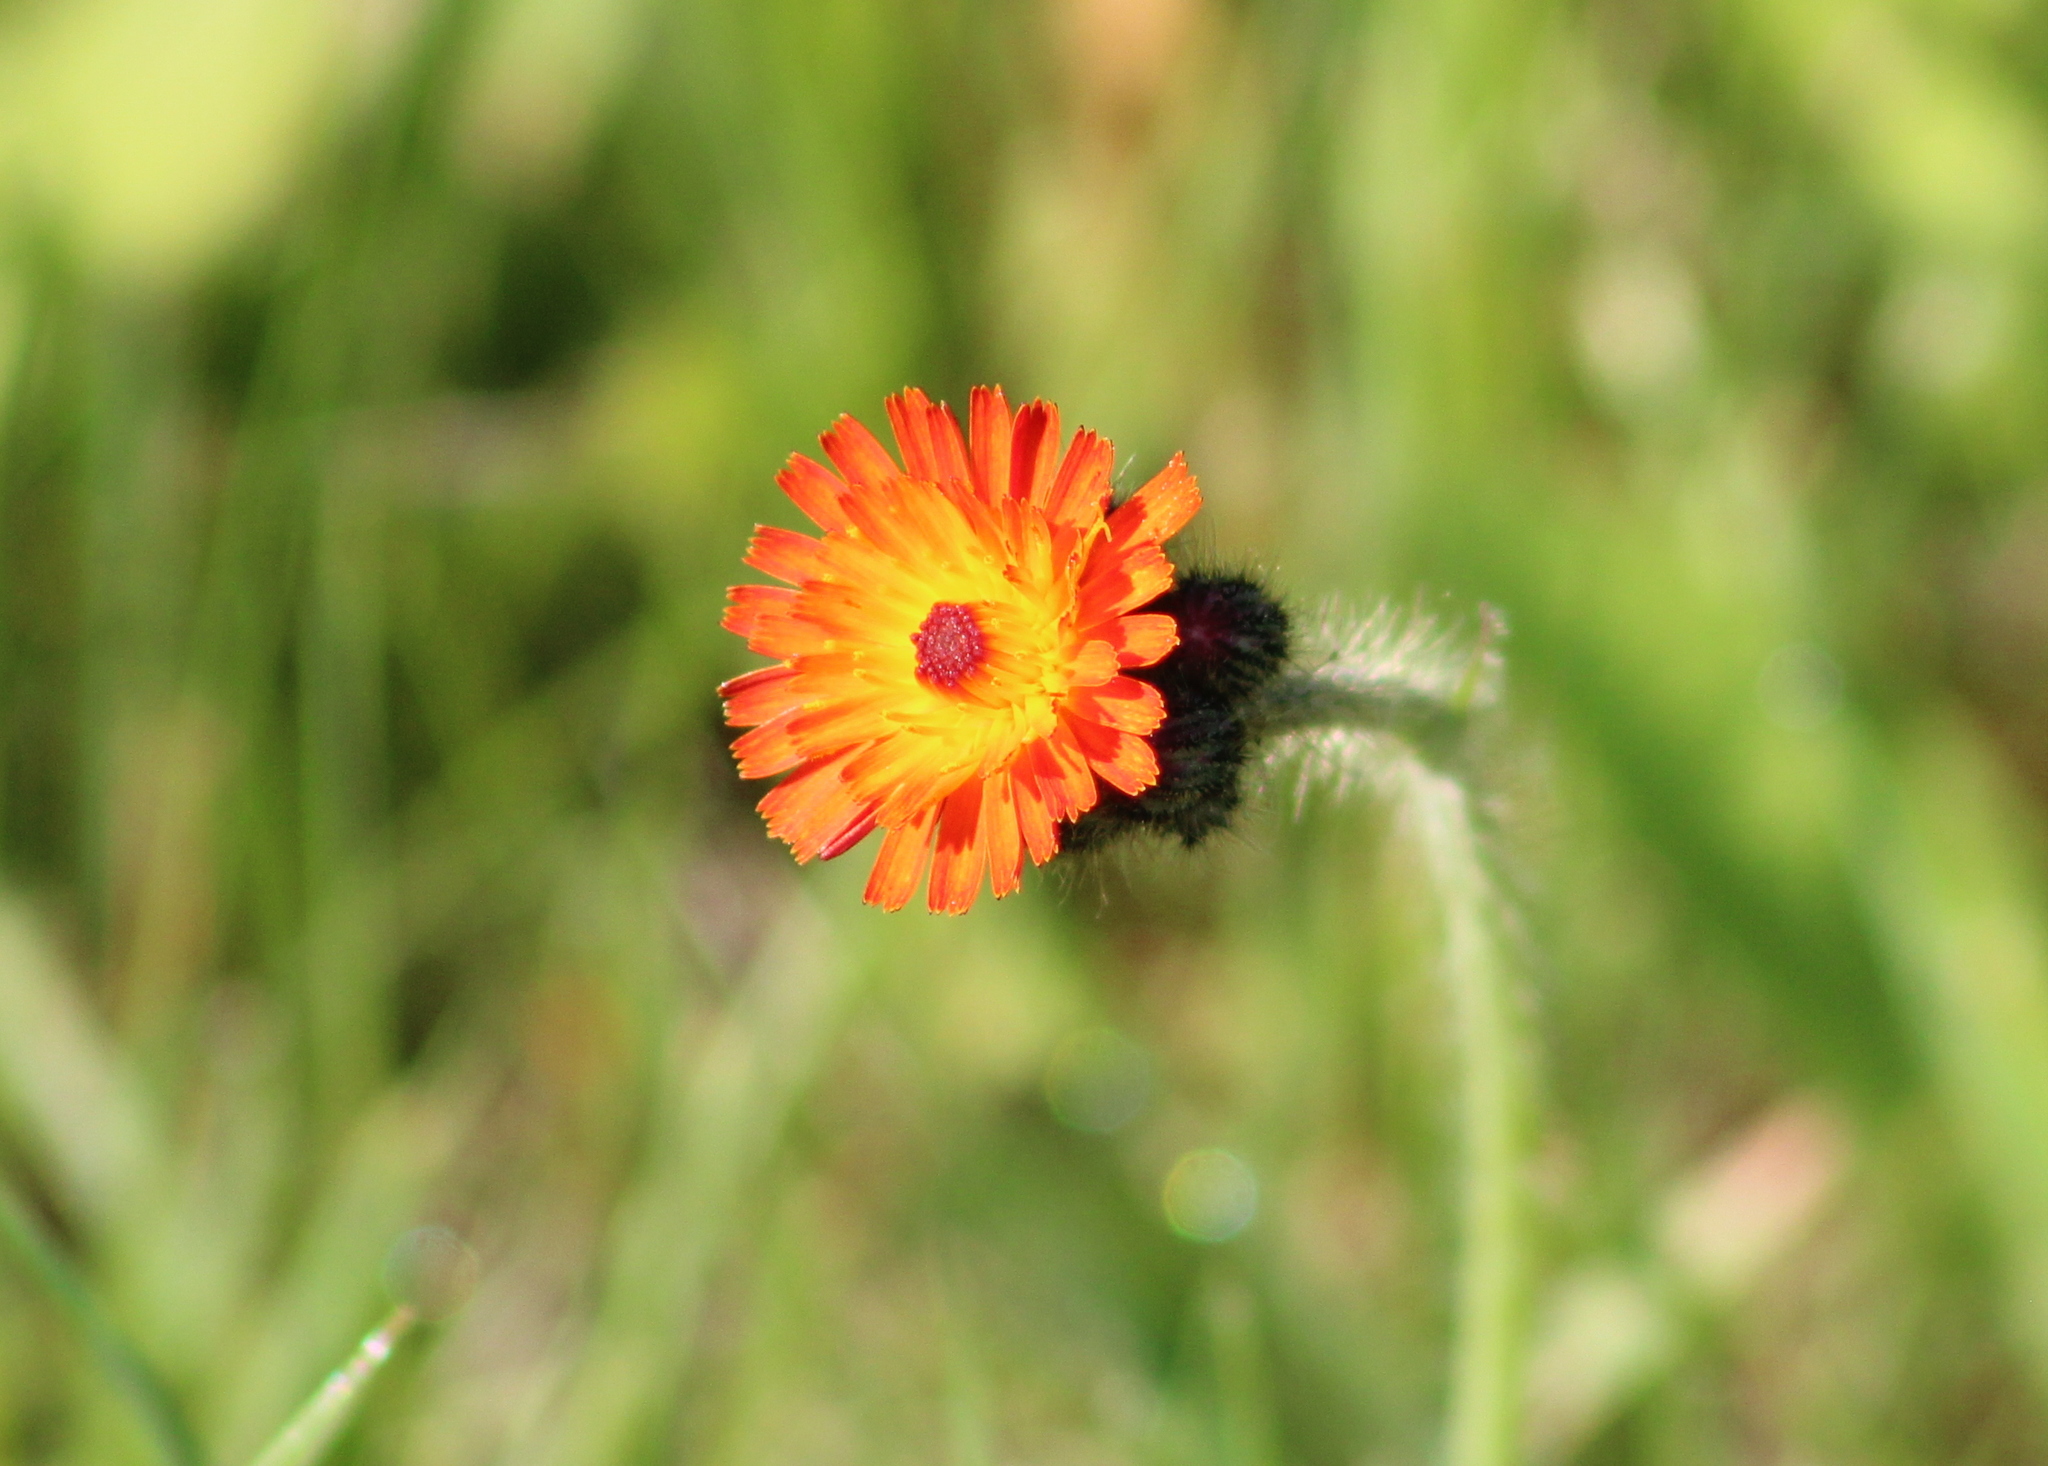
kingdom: Plantae
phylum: Tracheophyta
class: Magnoliopsida
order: Asterales
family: Asteraceae
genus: Pilosella
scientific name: Pilosella aurantiaca
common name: Fox-and-cubs
